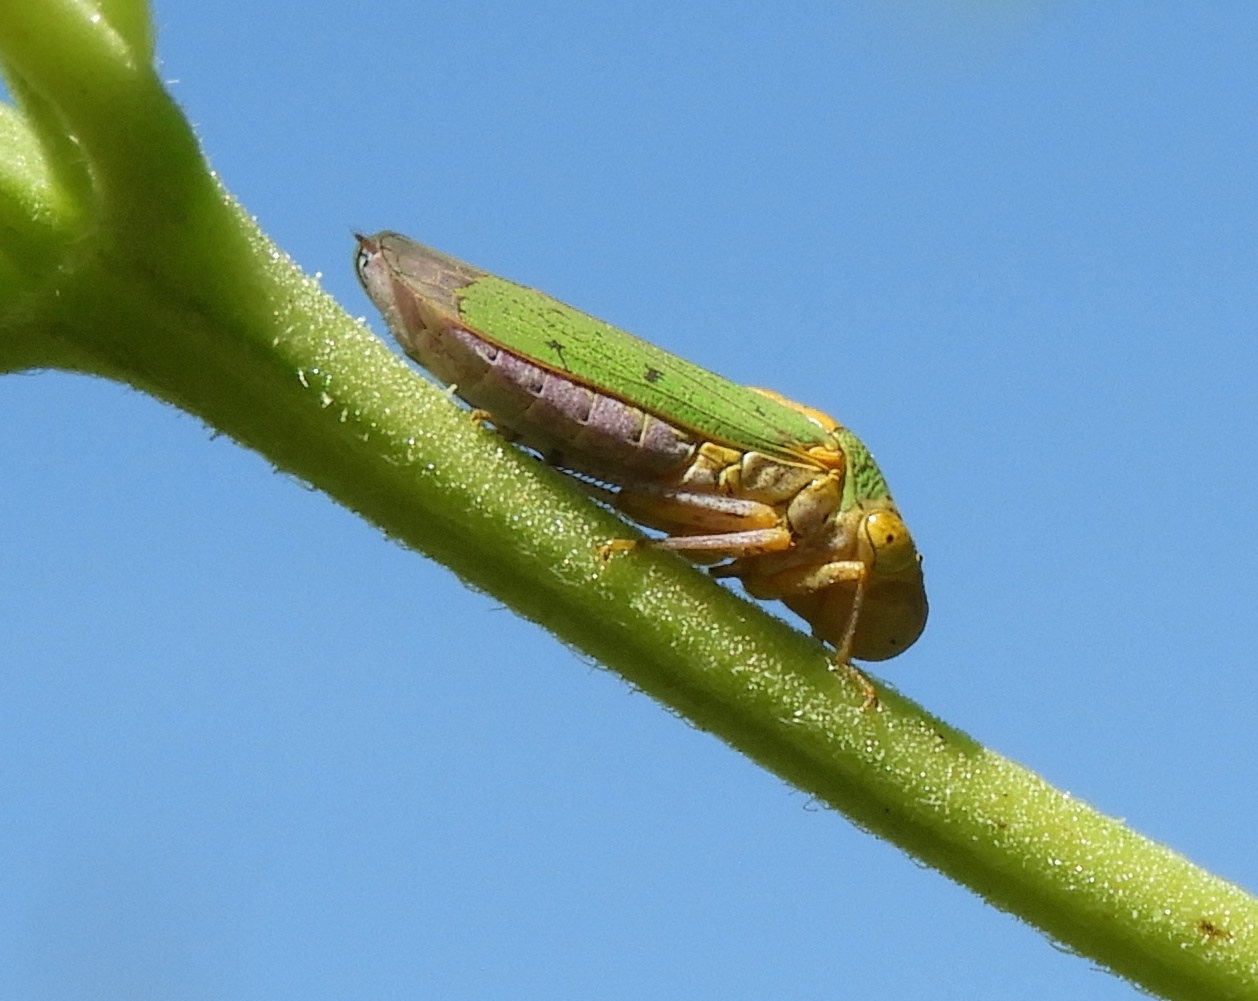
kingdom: Animalia
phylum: Arthropoda
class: Insecta
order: Hemiptera
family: Cicadellidae
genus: Oncometopia
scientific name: Oncometopia
